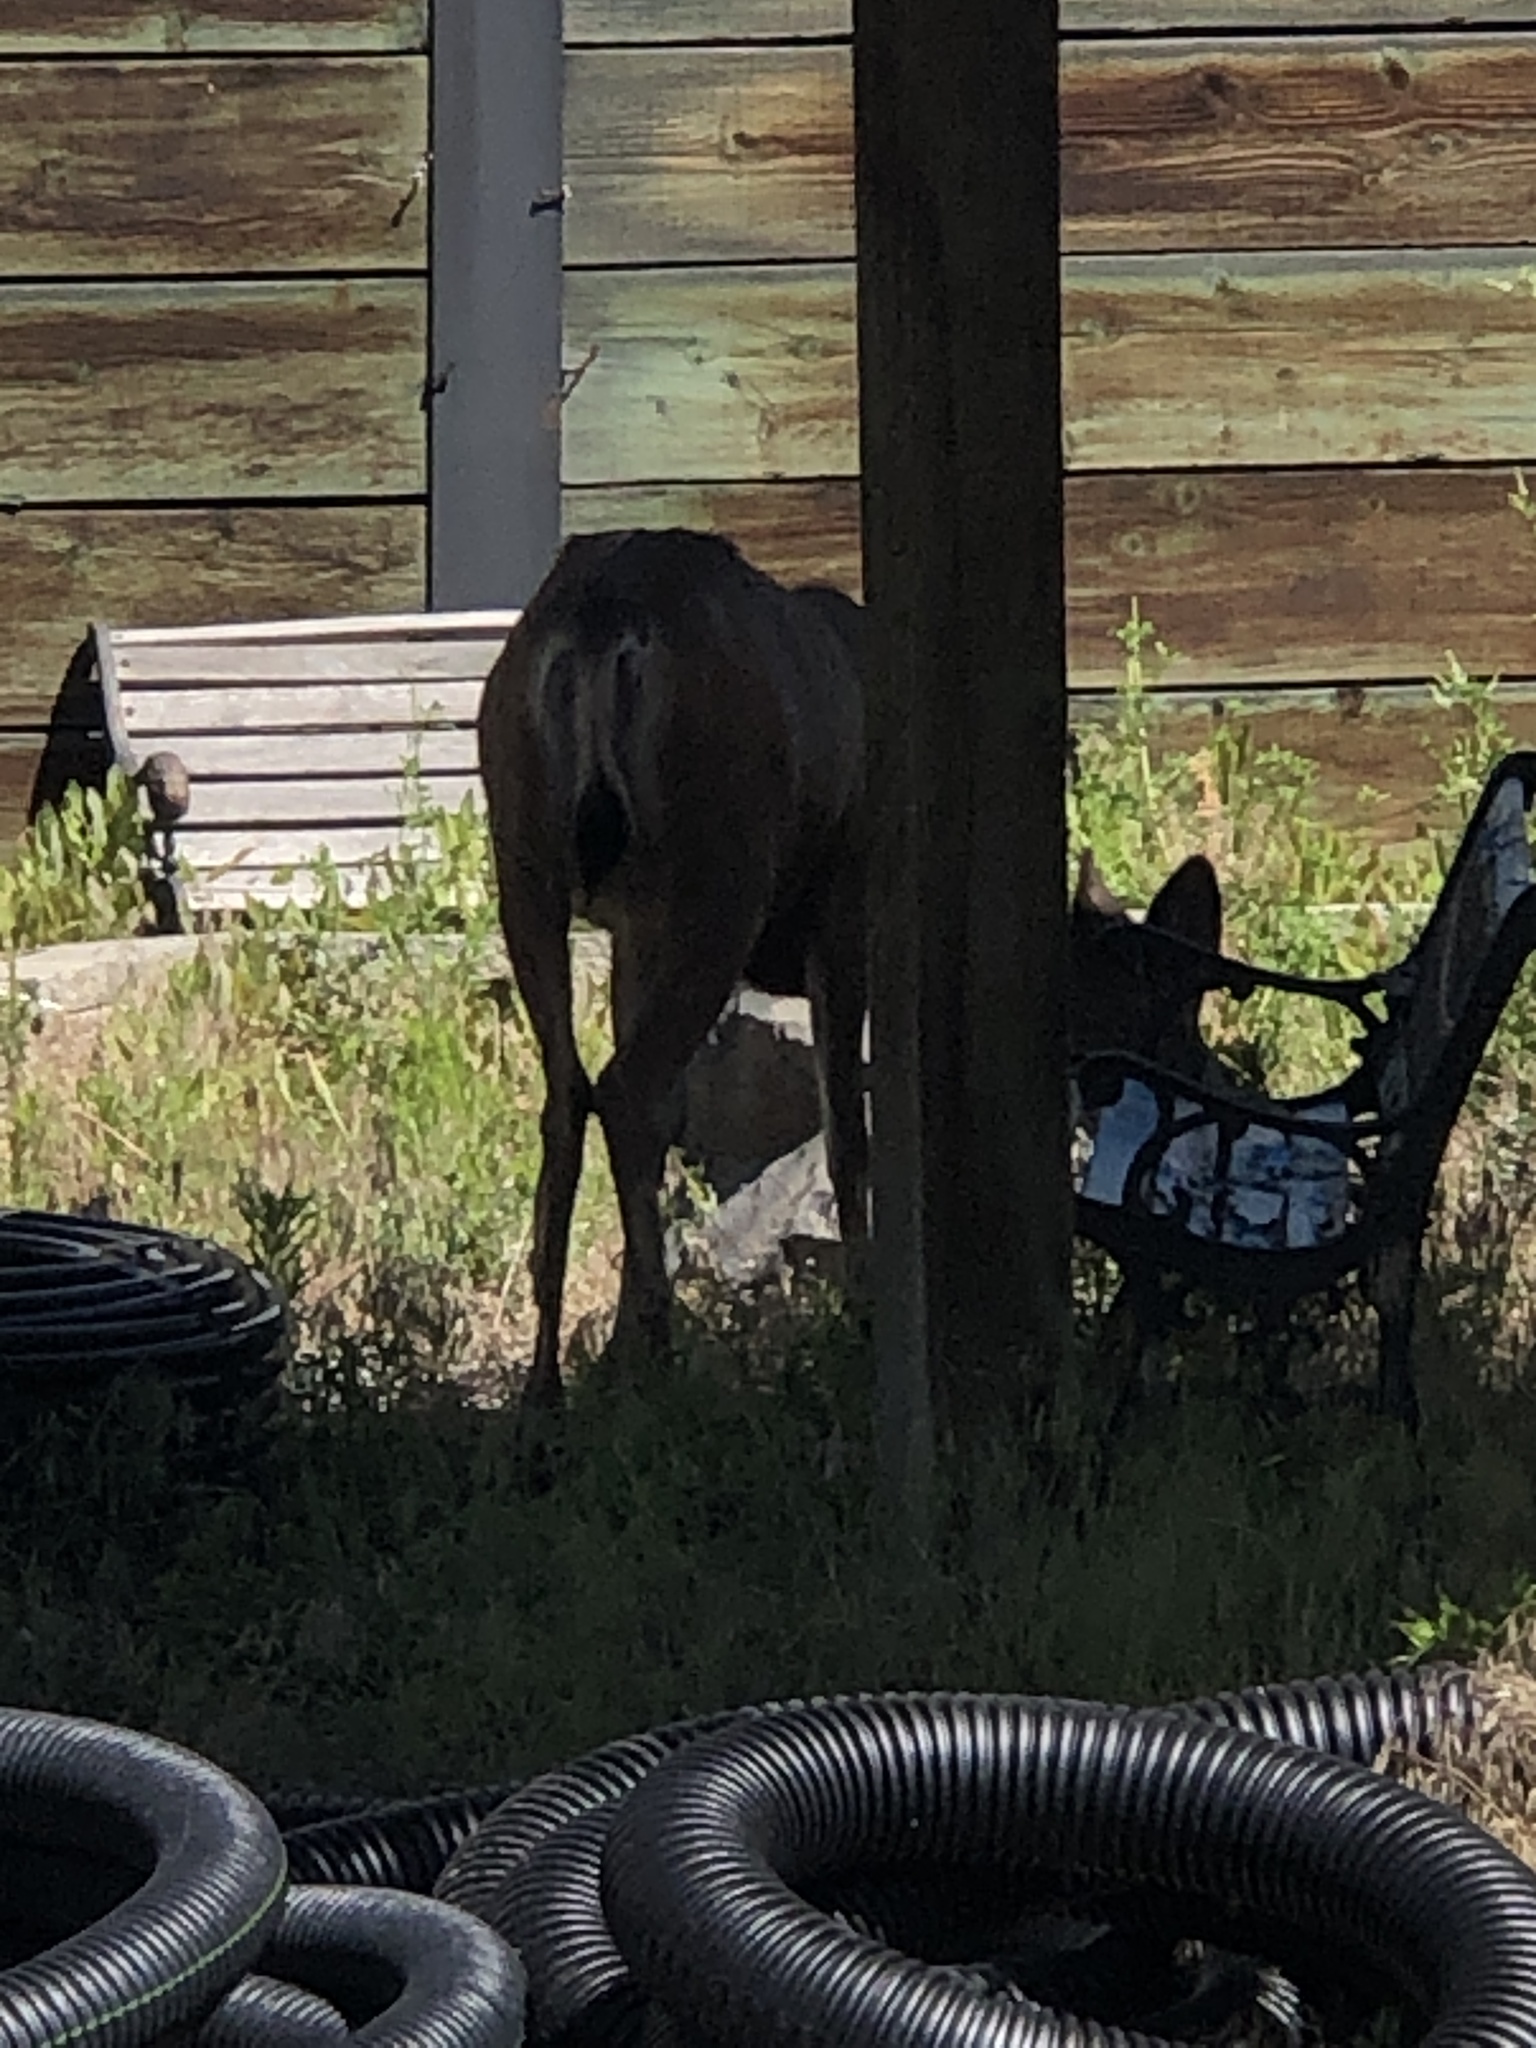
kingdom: Animalia
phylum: Chordata
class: Mammalia
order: Artiodactyla
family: Cervidae
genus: Odocoileus
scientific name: Odocoileus hemionus
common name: Mule deer
